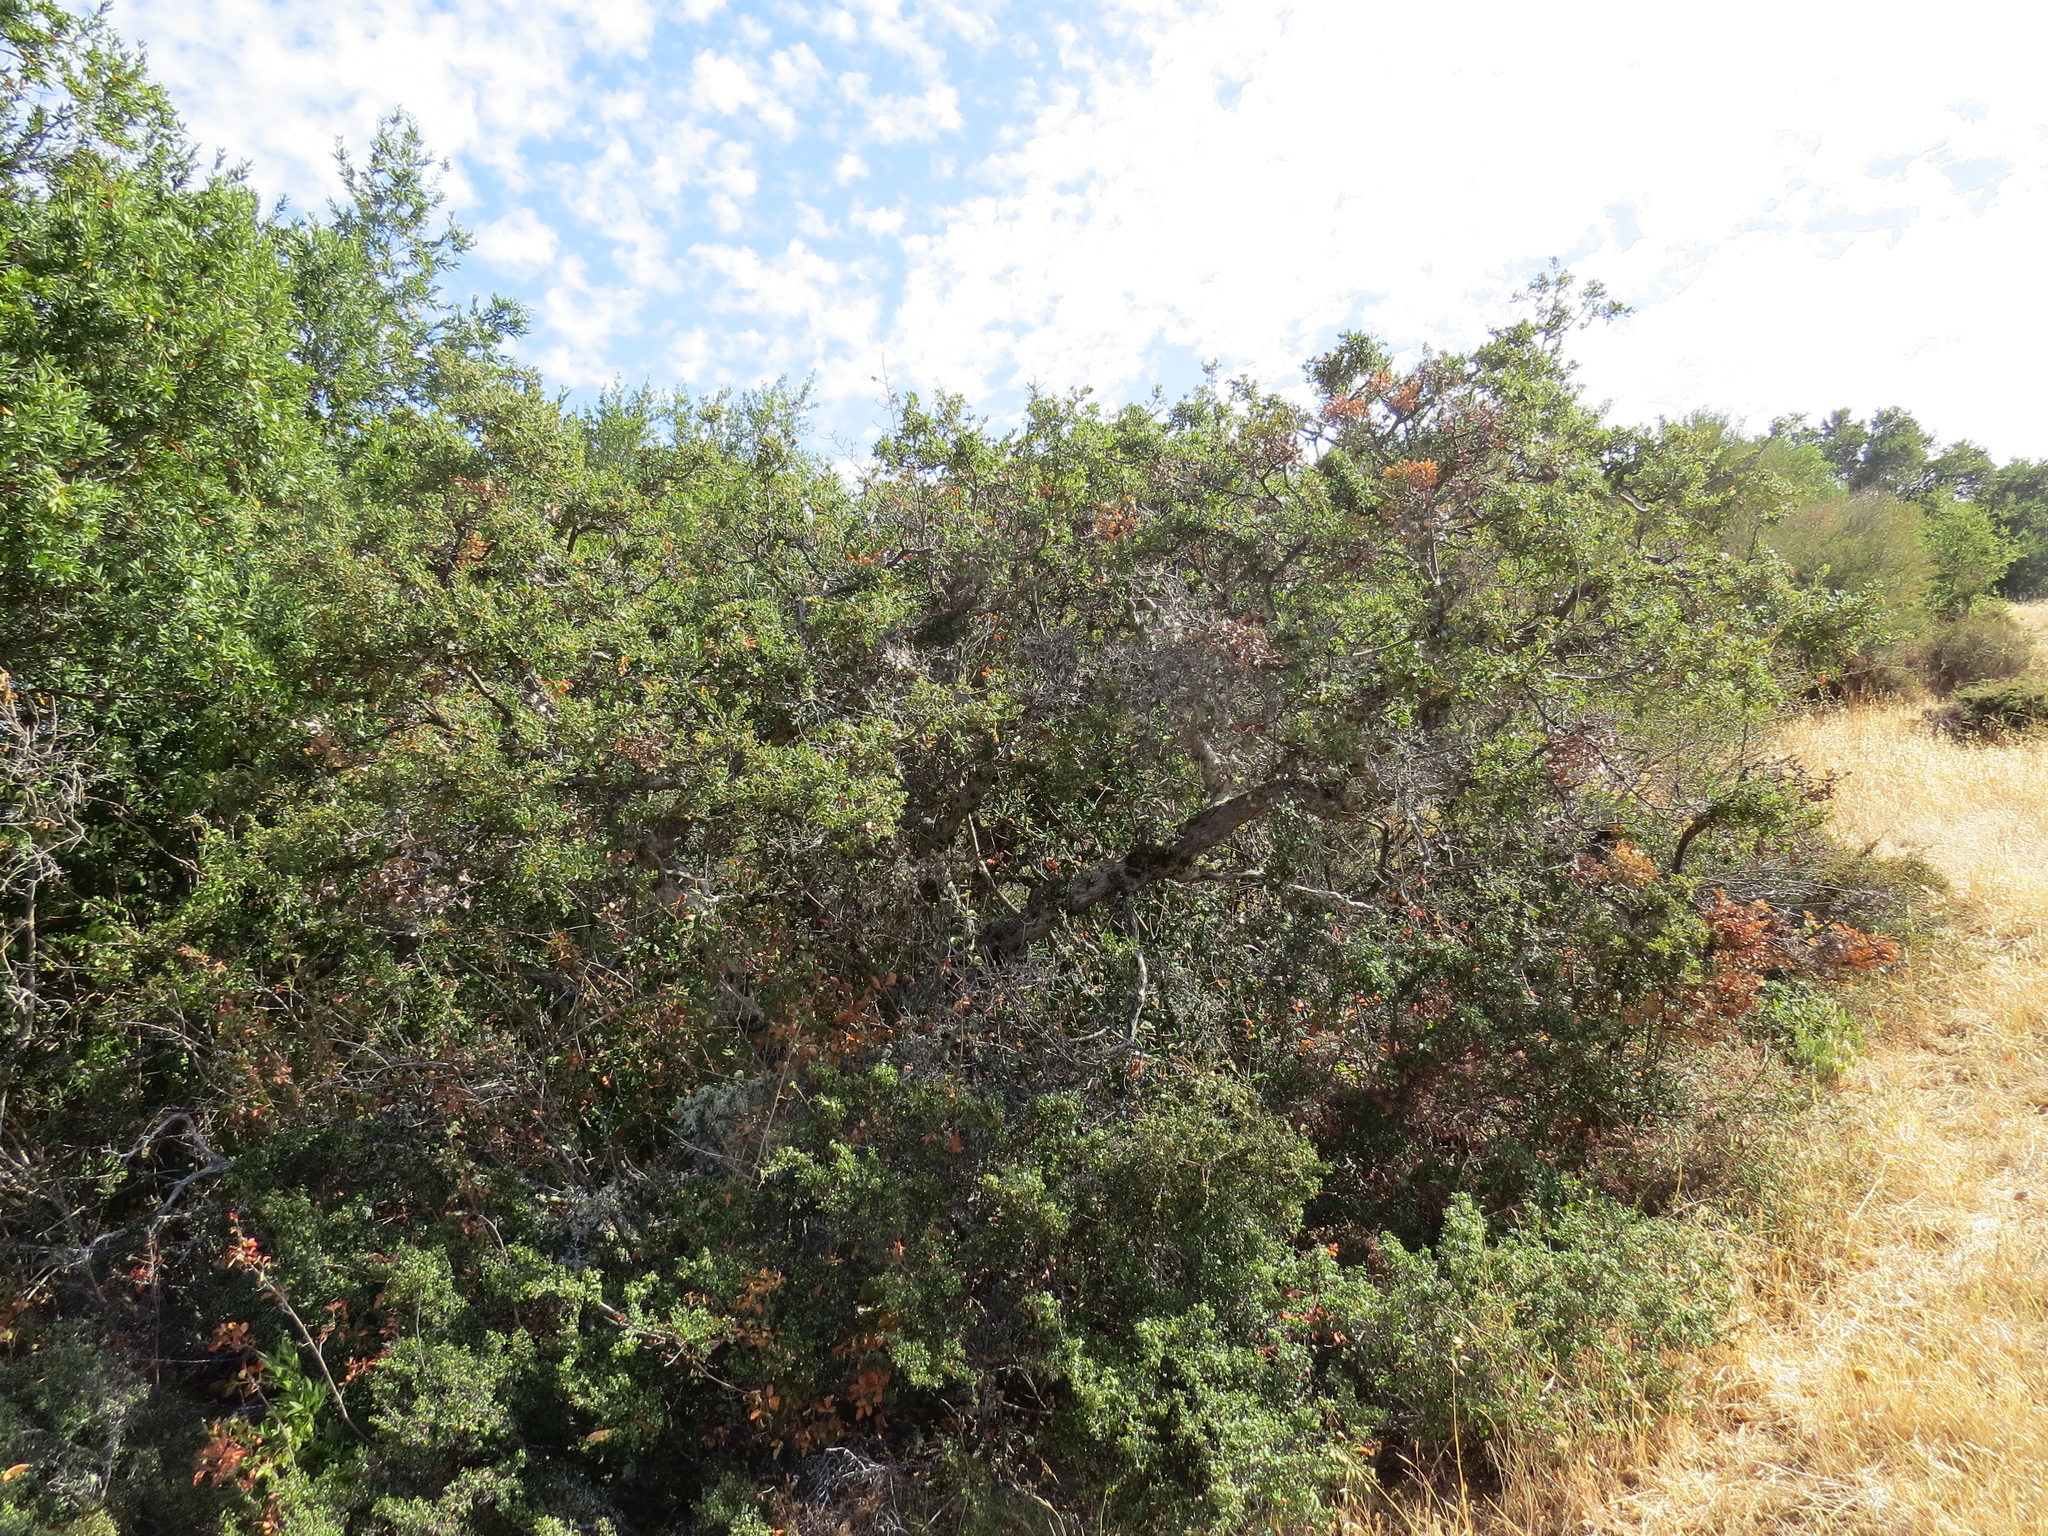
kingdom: Plantae
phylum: Tracheophyta
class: Magnoliopsida
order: Fagales
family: Fagaceae
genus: Quercus
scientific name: Quercus durata
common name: Leather oak
